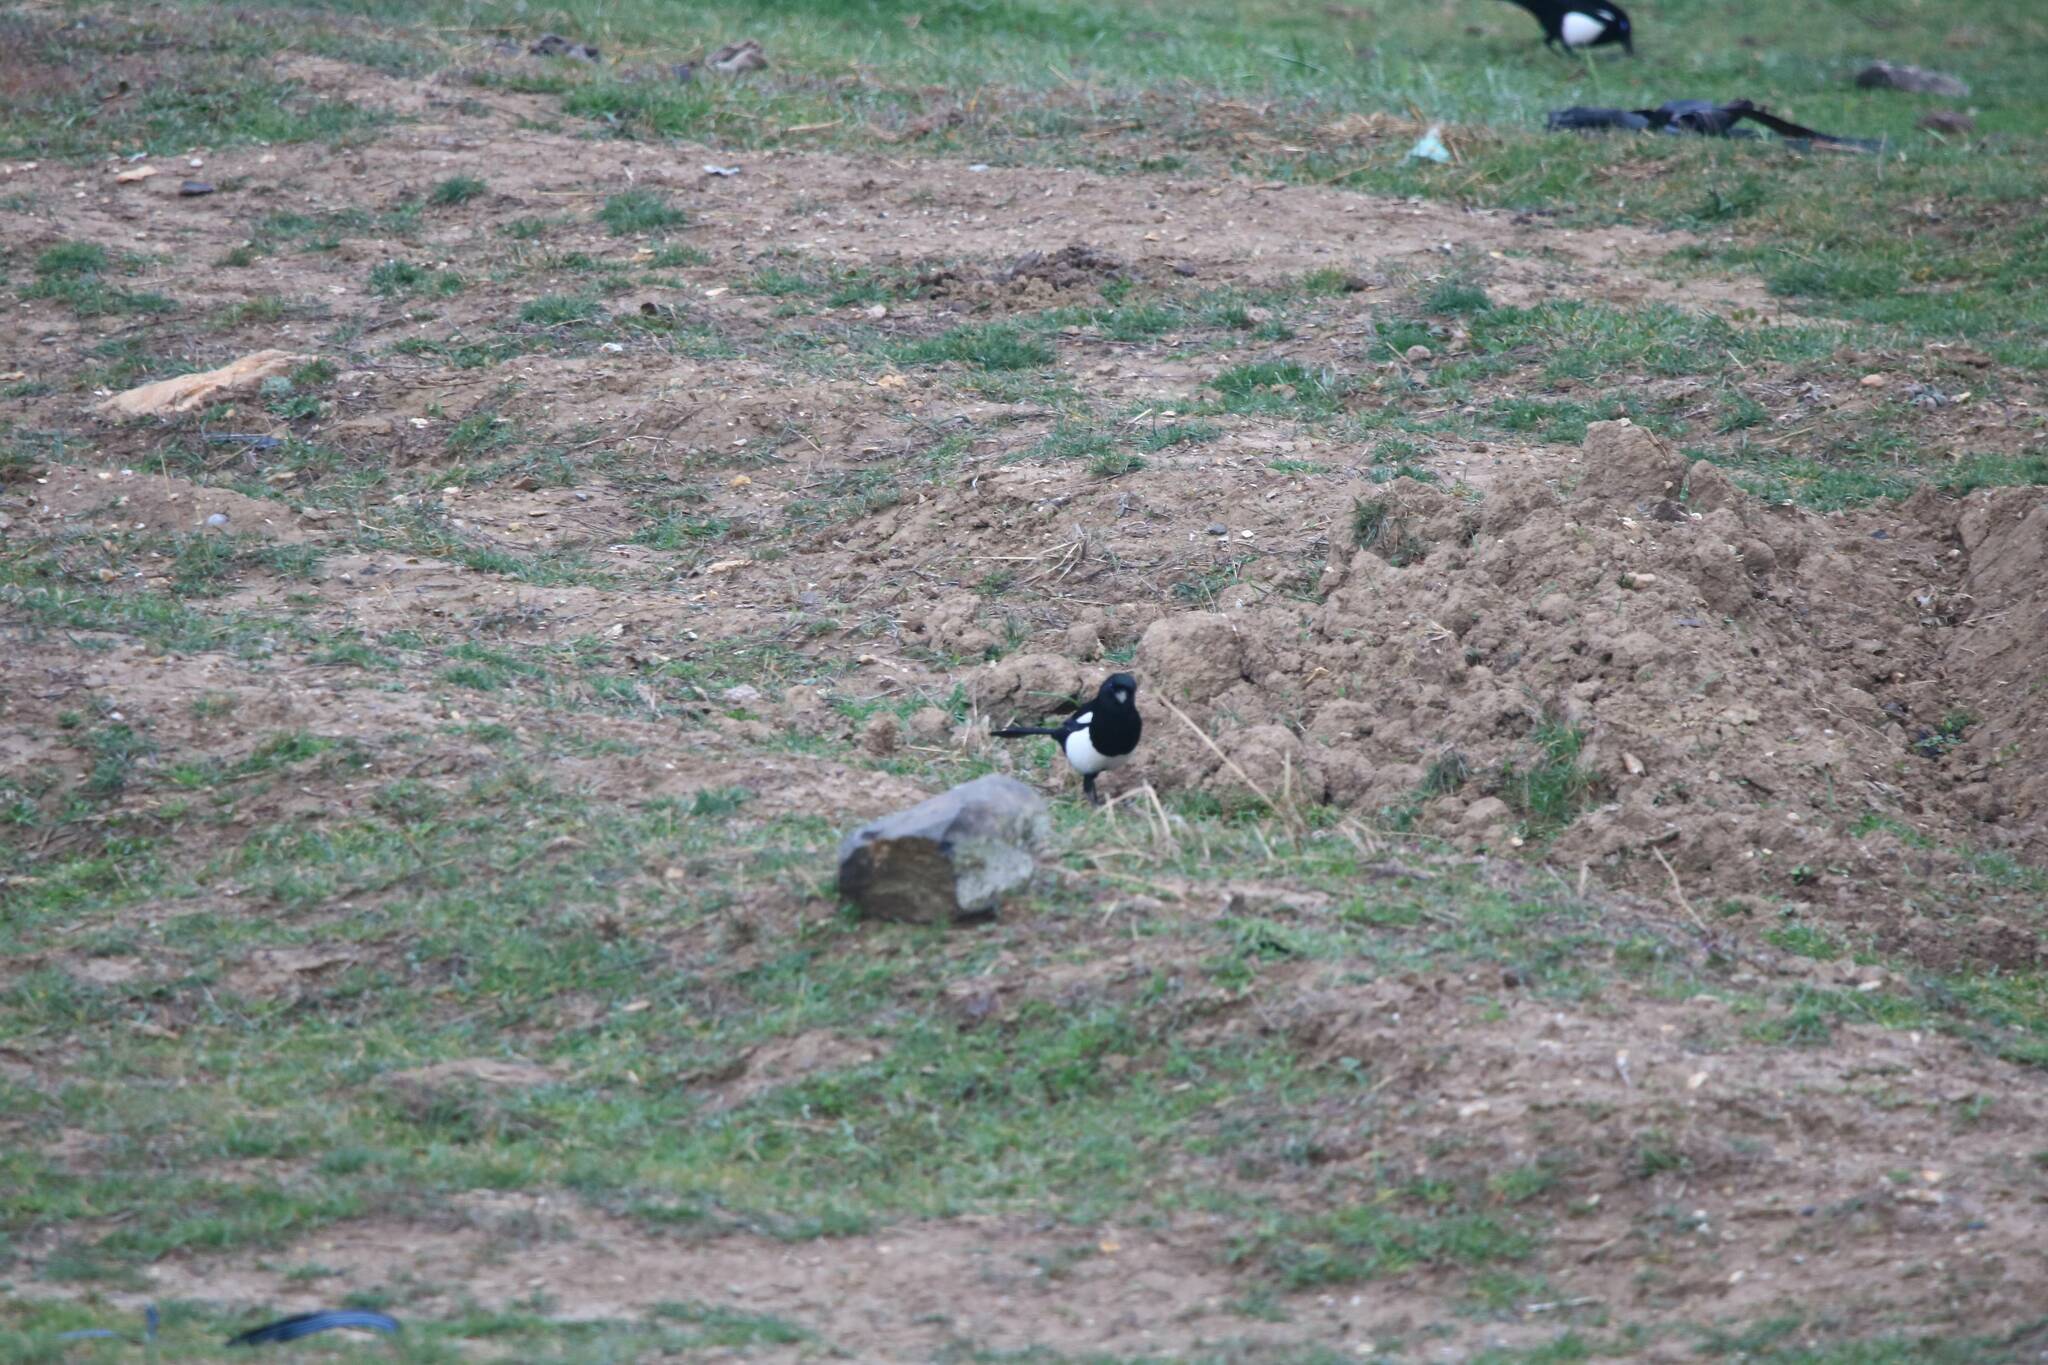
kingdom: Animalia
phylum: Chordata
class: Aves
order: Passeriformes
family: Corvidae
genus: Pica
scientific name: Pica mauritanica
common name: Maghreb magpie
